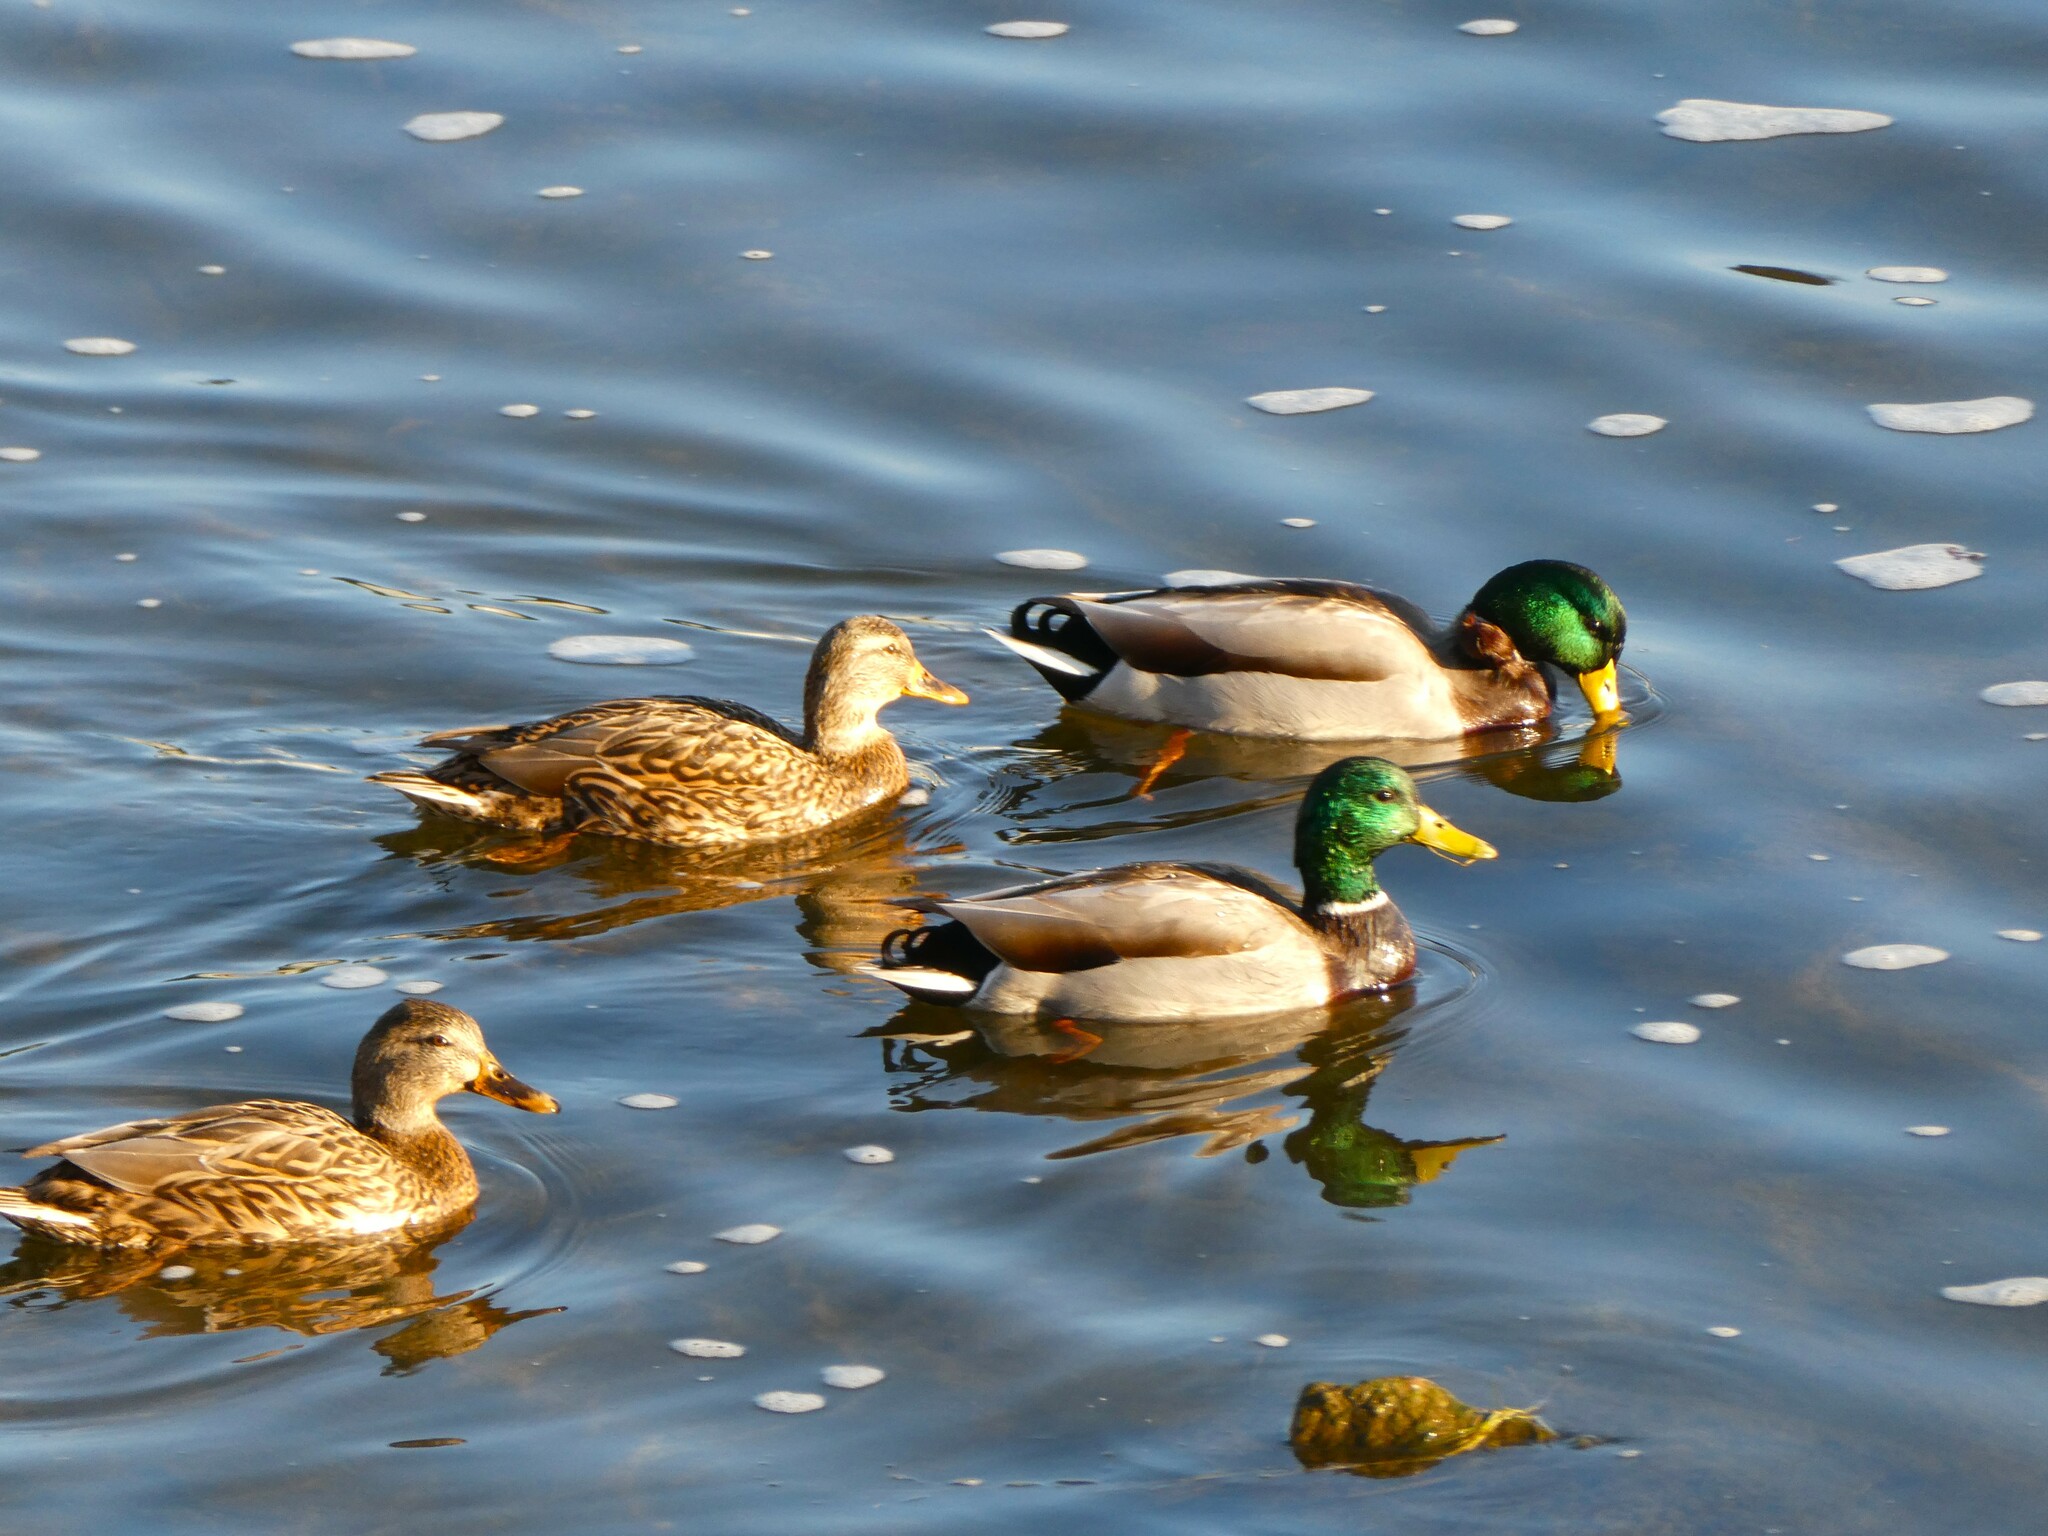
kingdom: Animalia
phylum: Chordata
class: Aves
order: Anseriformes
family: Anatidae
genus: Anas
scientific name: Anas platyrhynchos
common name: Mallard
